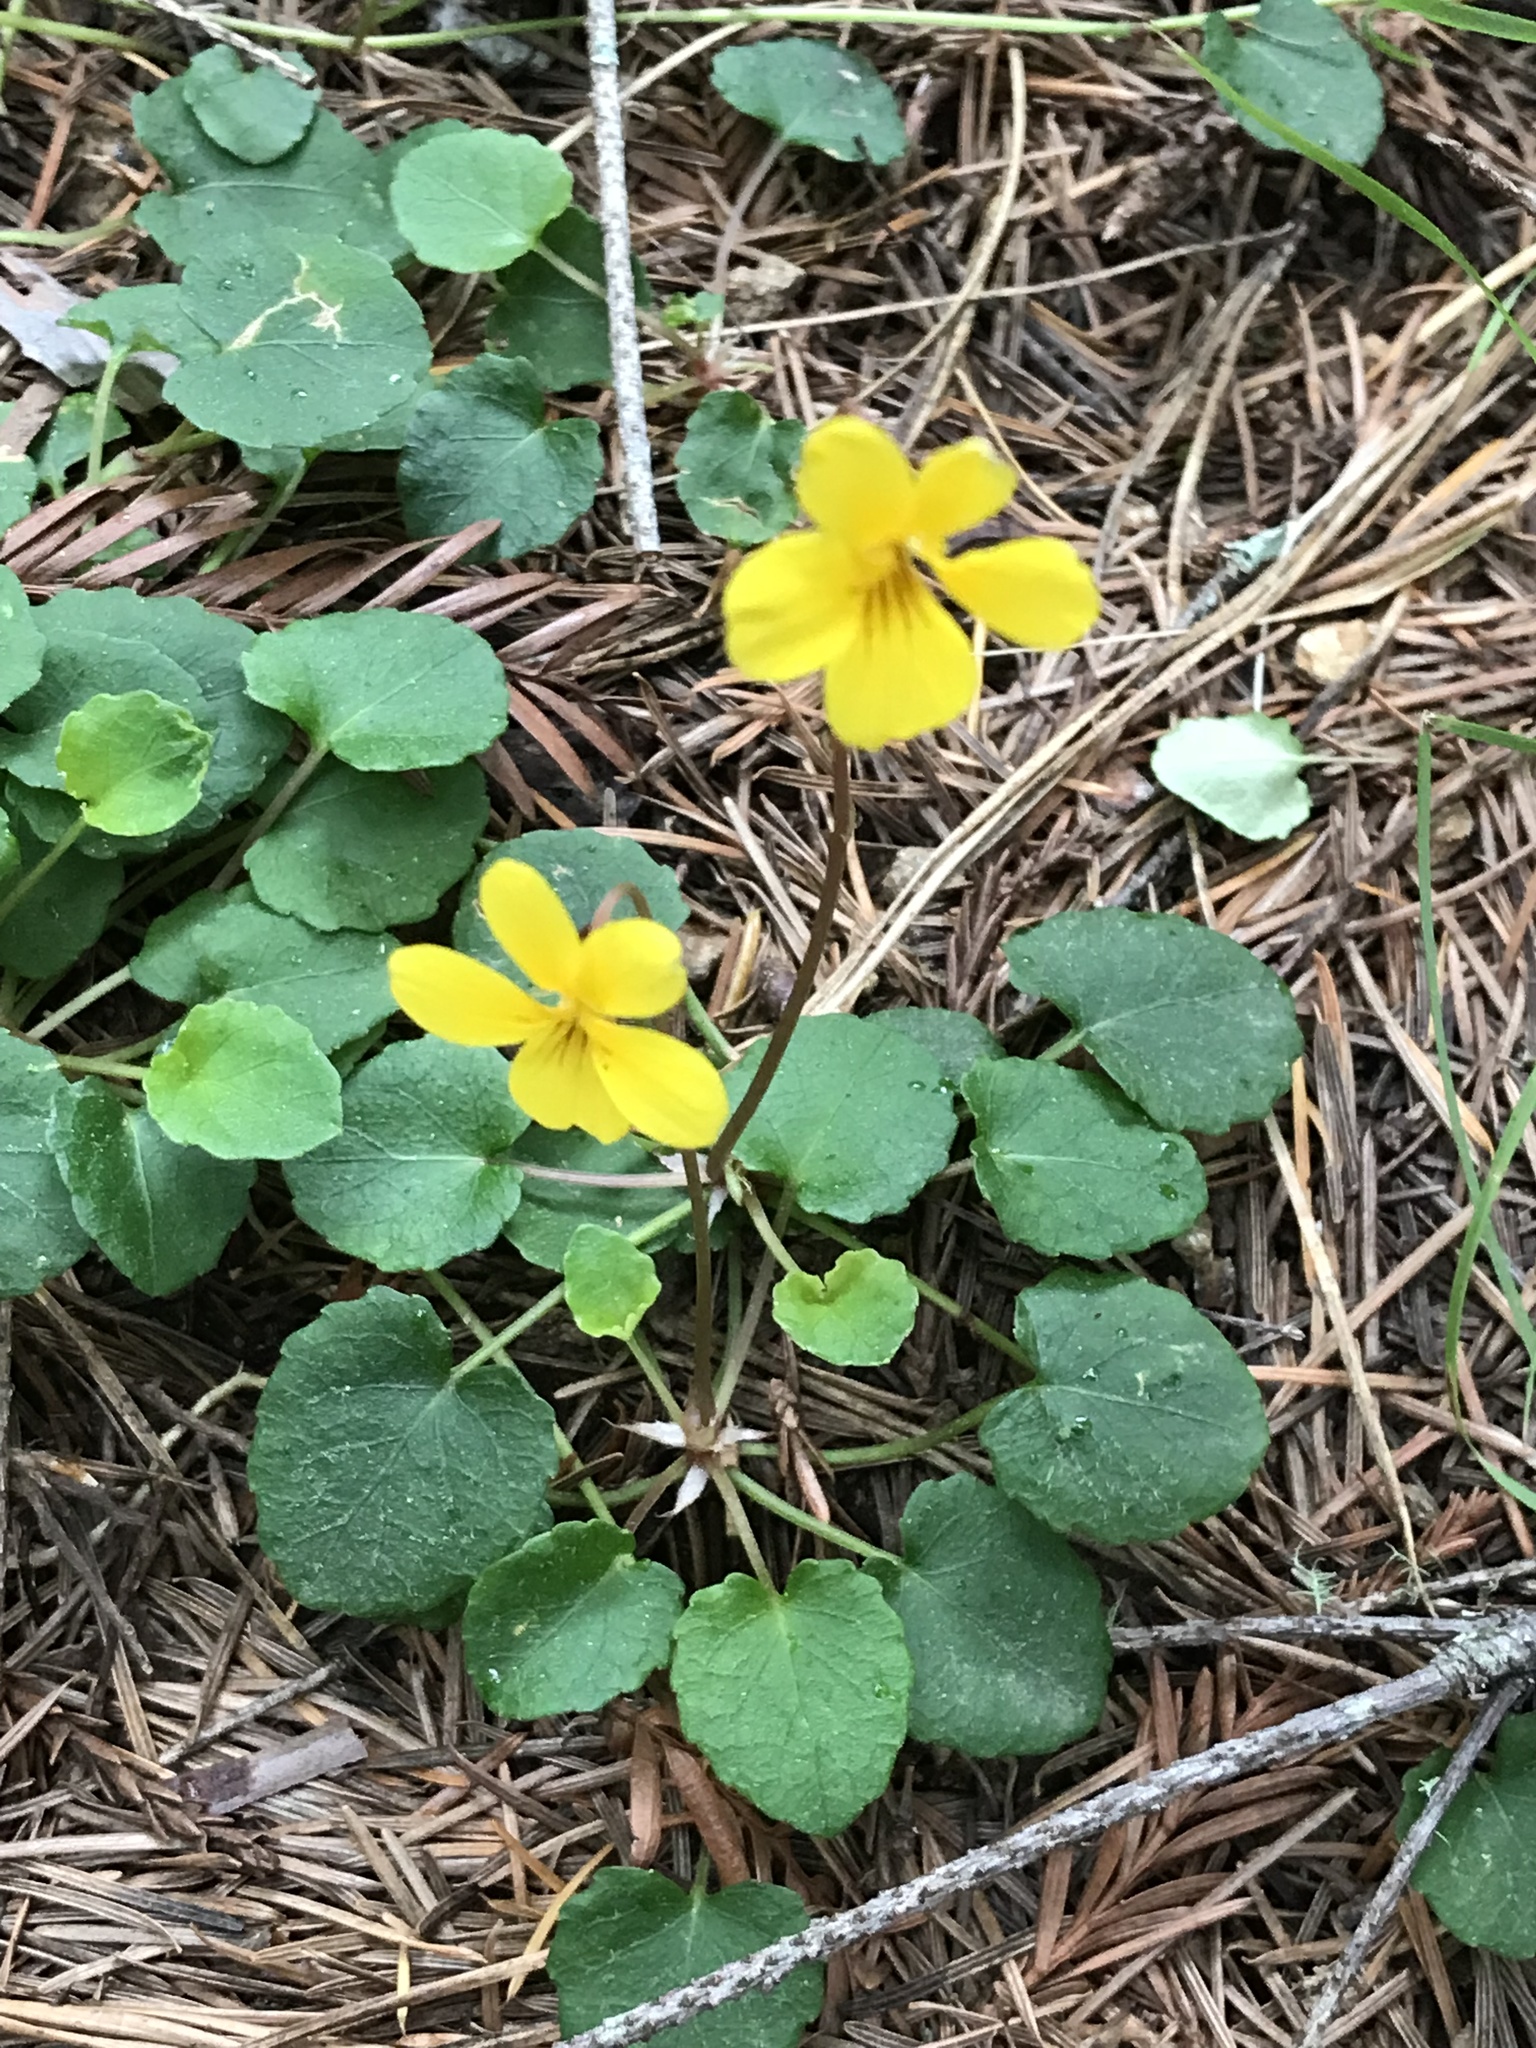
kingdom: Plantae
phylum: Tracheophyta
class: Magnoliopsida
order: Malpighiales
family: Violaceae
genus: Viola
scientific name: Viola sempervirens
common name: Evergreen violet
